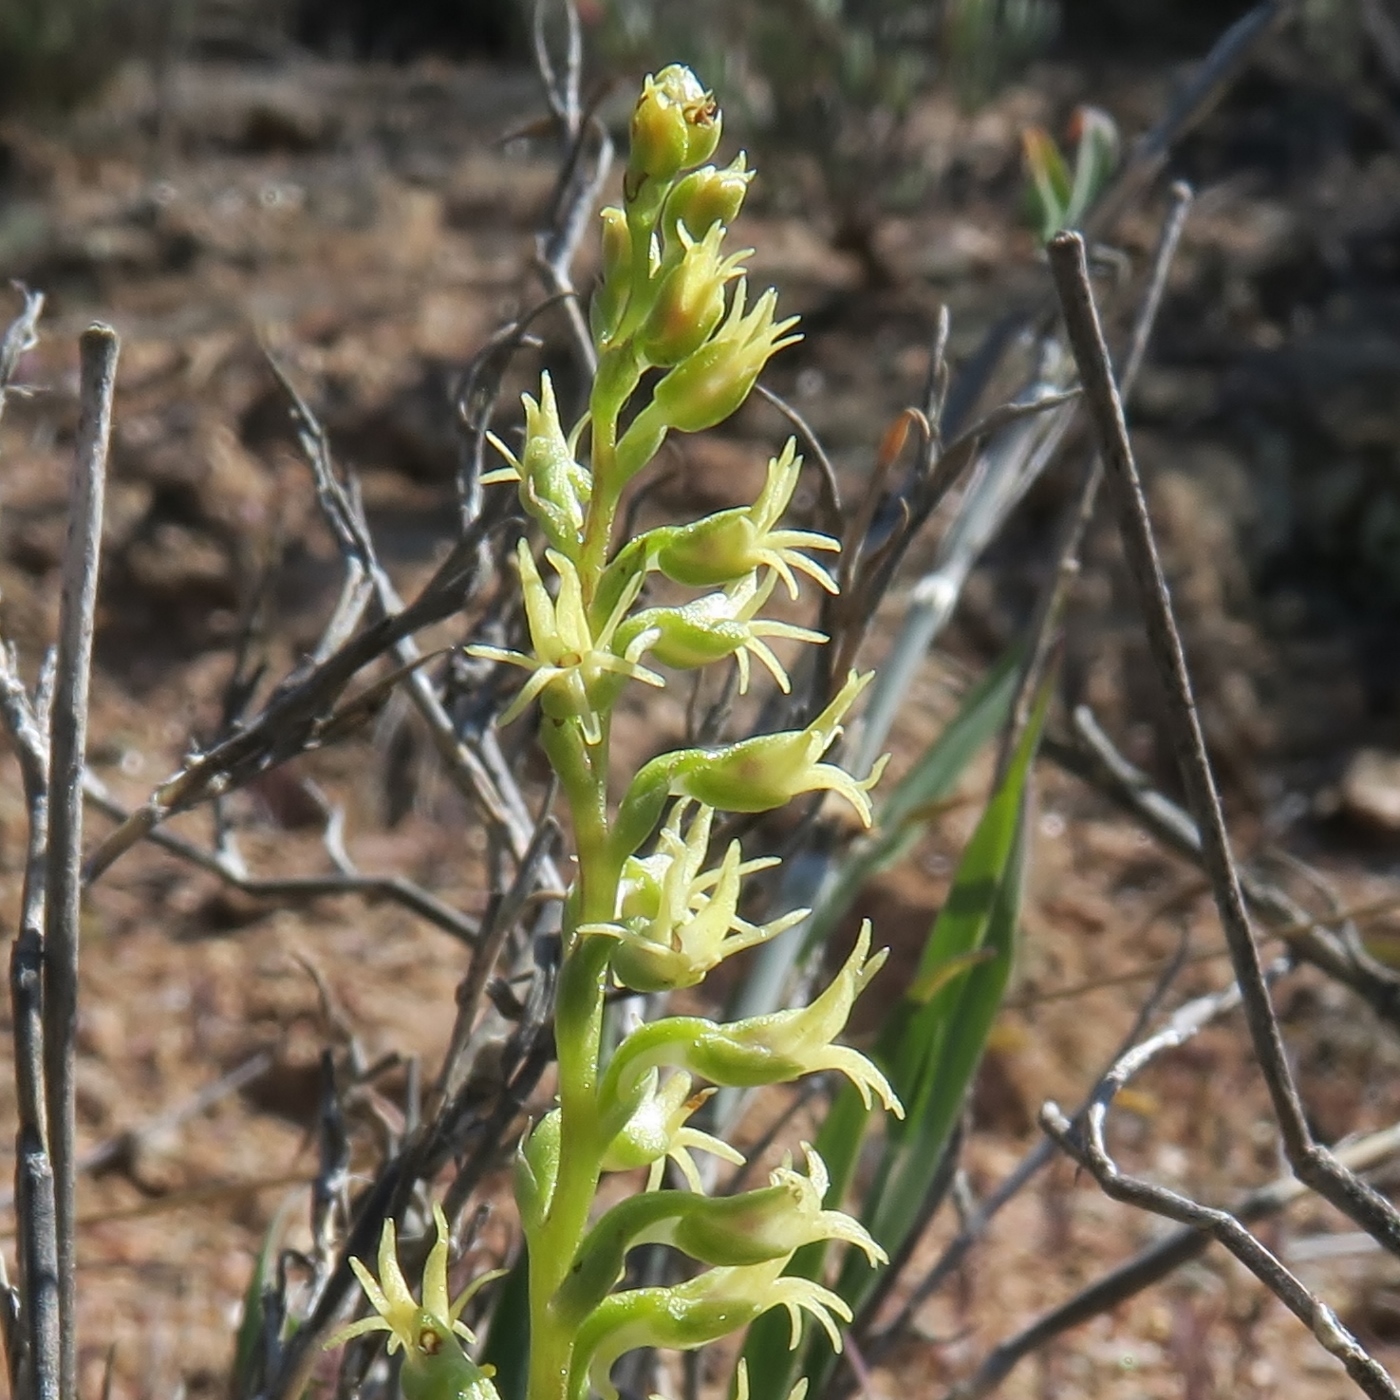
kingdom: Plantae
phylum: Tracheophyta
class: Liliopsida
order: Asparagales
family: Orchidaceae
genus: Holothrix
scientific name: Holothrix secunda
